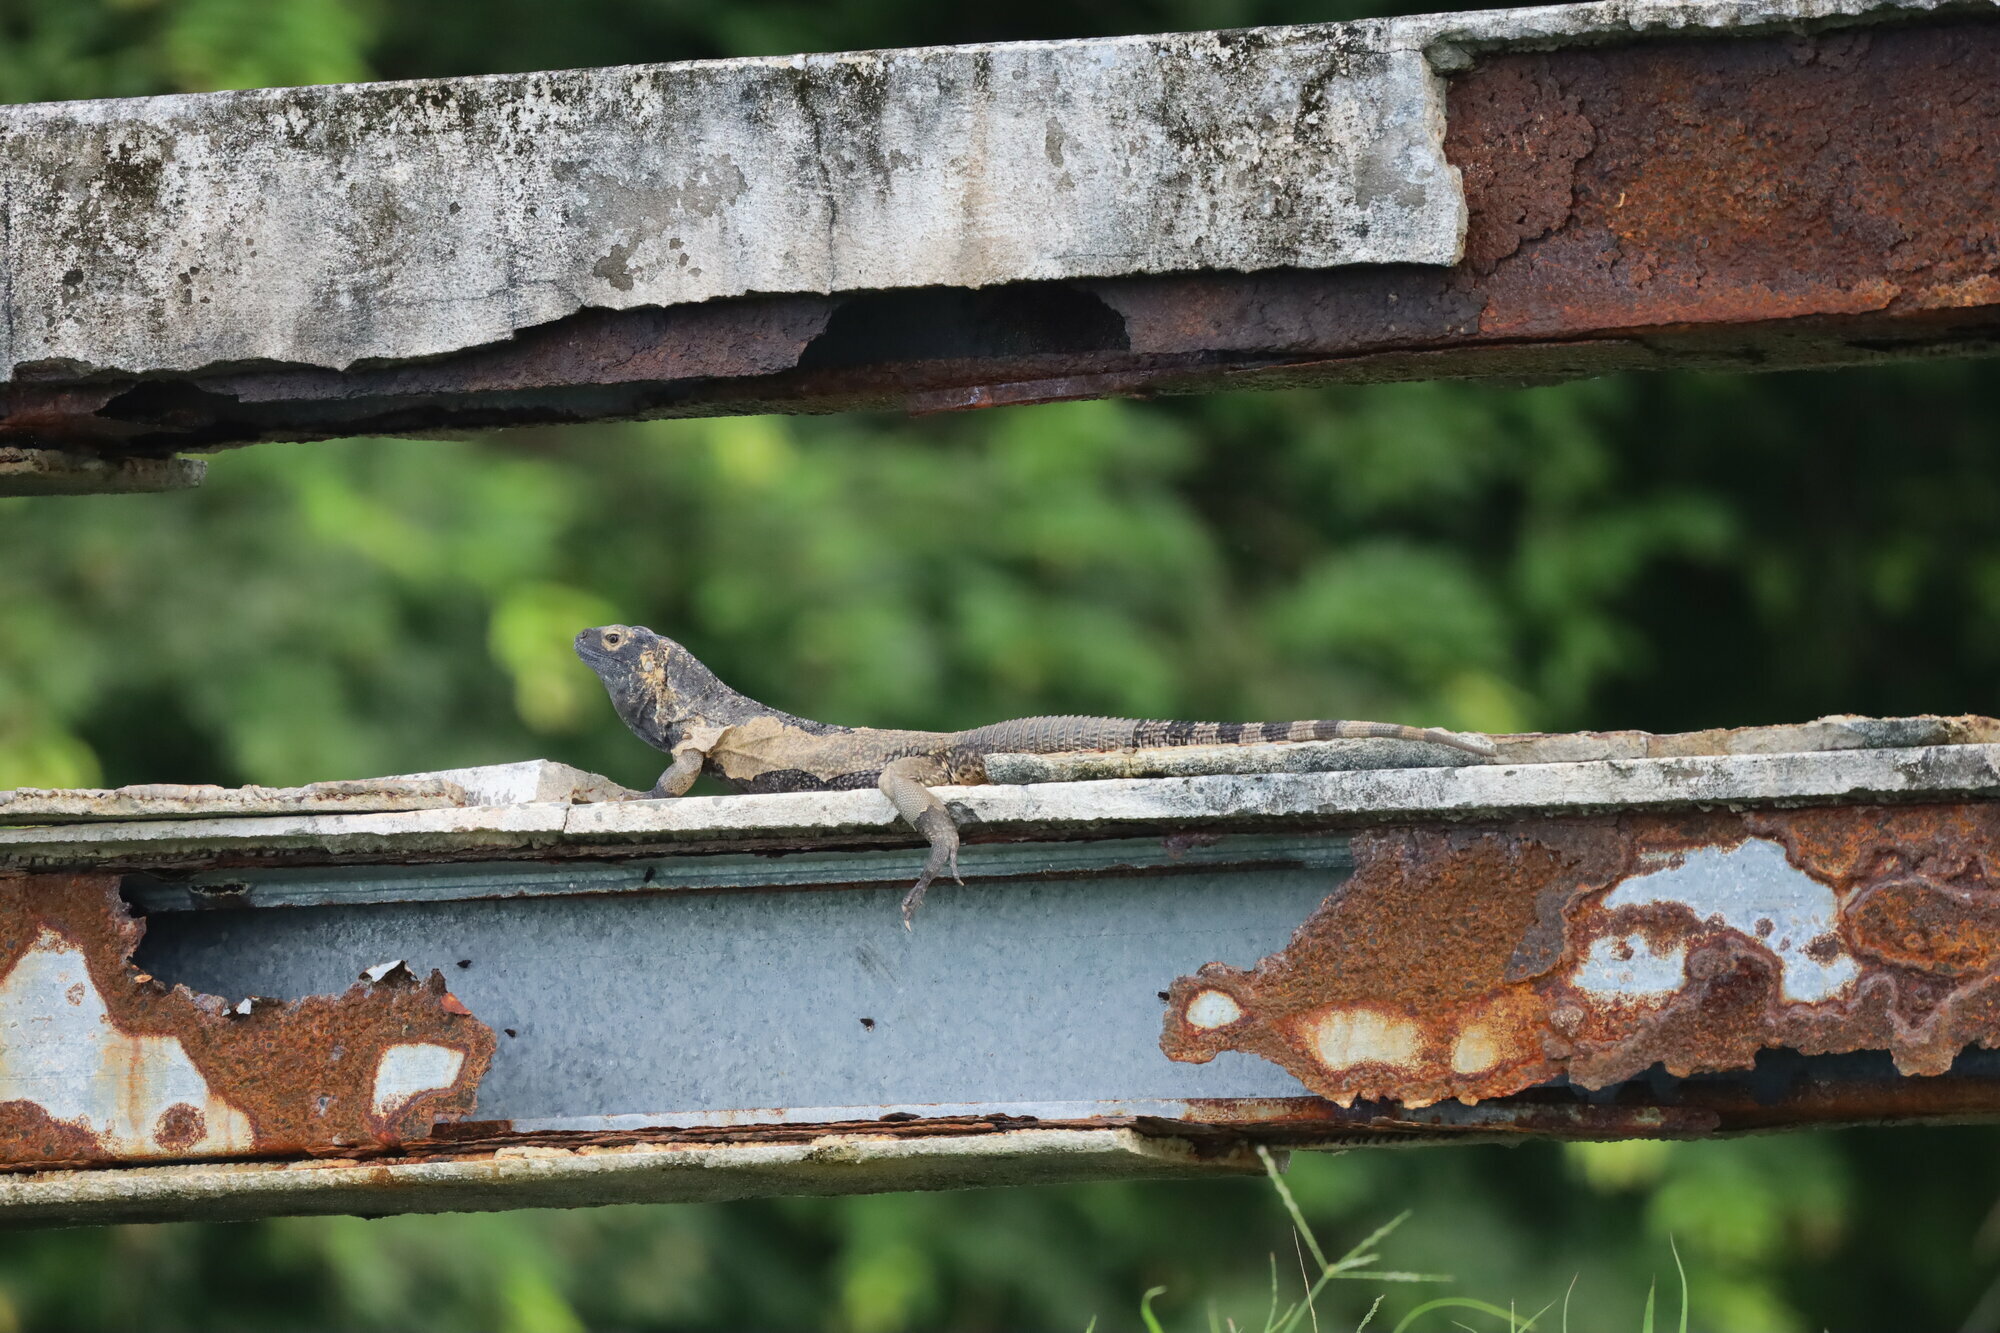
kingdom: Animalia
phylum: Chordata
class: Squamata
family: Iguanidae
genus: Ctenosaura
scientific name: Ctenosaura similis
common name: Black spiny-tailed iguana
